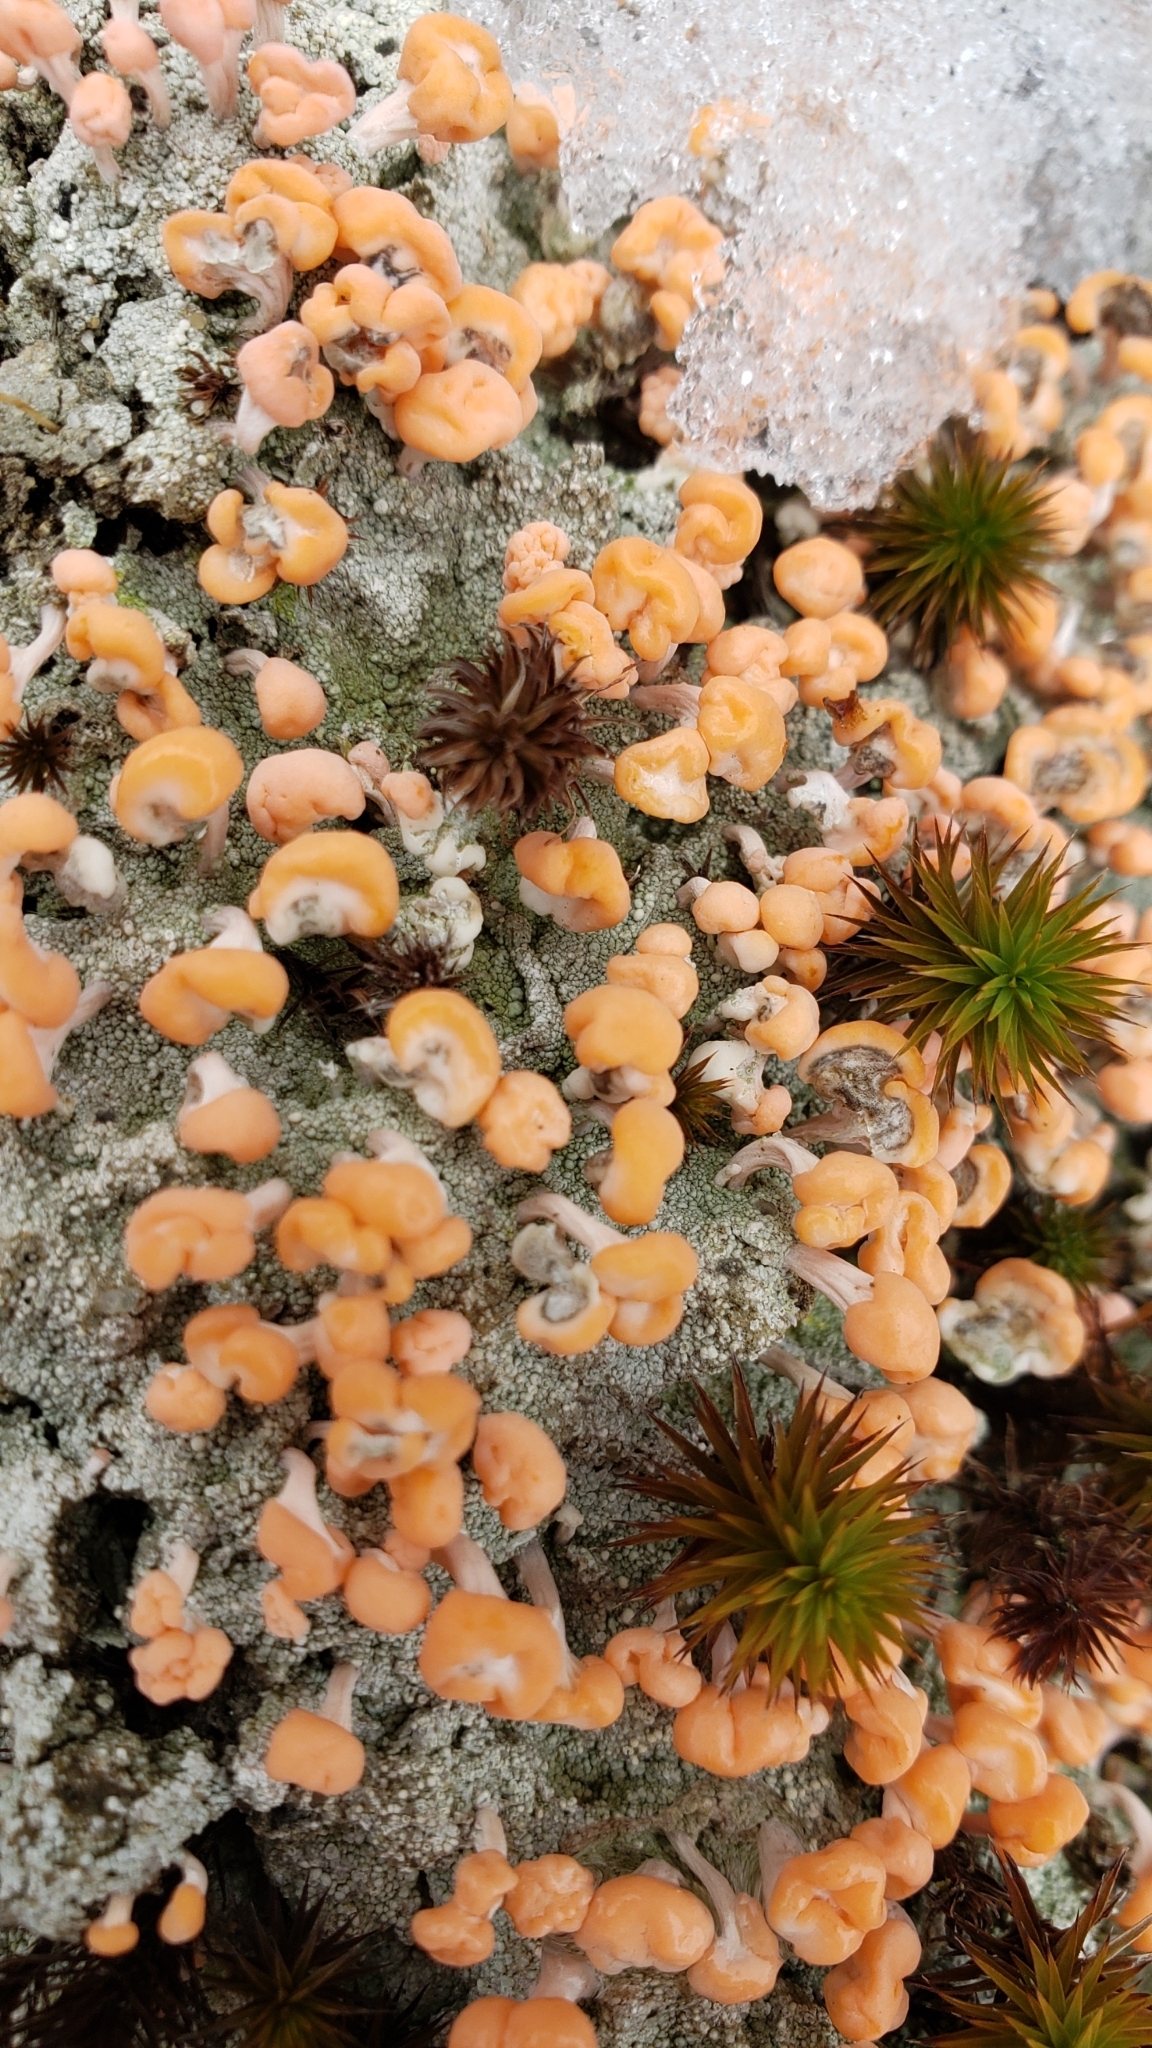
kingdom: Fungi
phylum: Ascomycota
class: Lecanoromycetes
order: Pertusariales
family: Icmadophilaceae
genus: Dibaeis
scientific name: Dibaeis baeomyces
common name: Pink earth lichen
